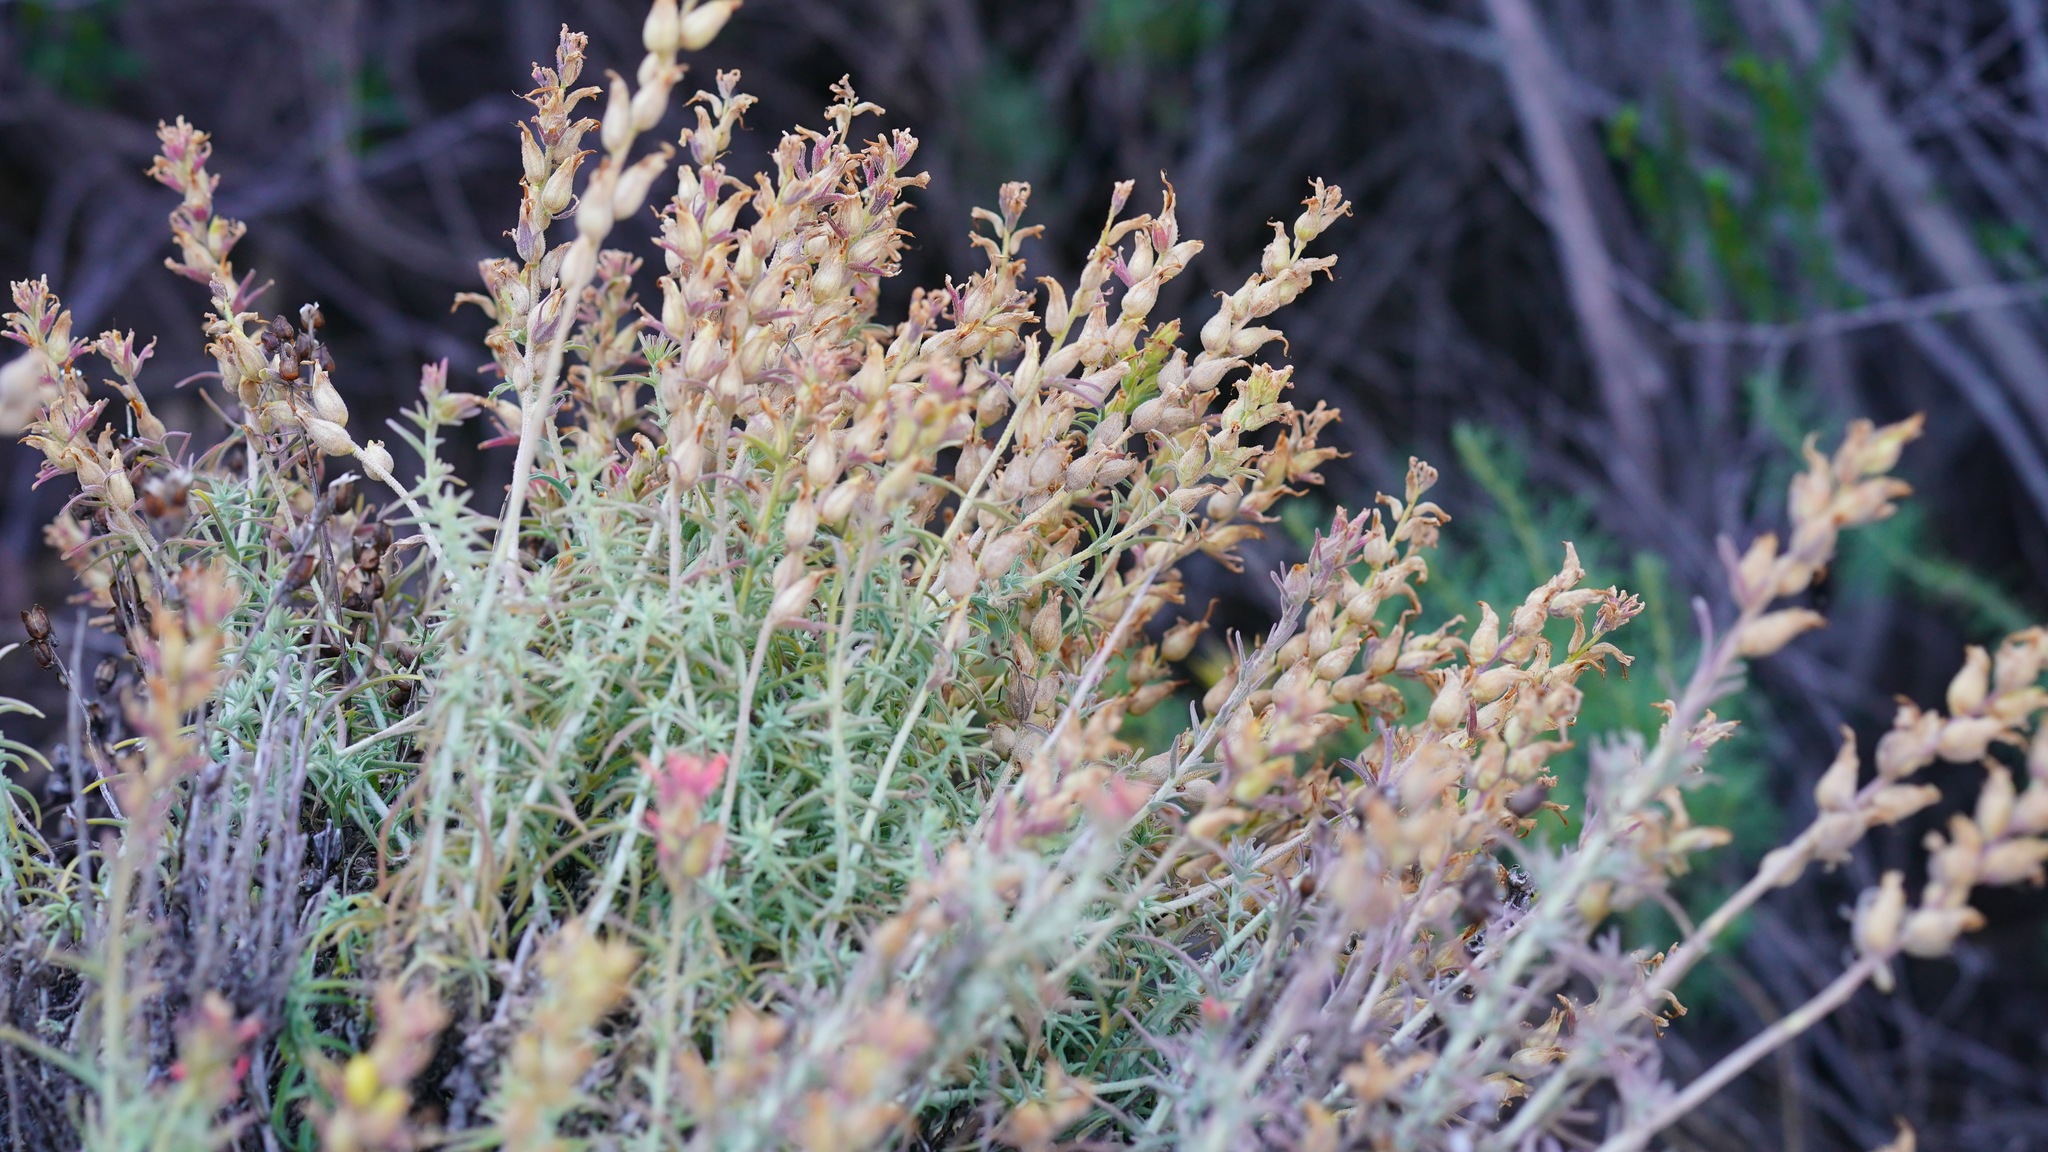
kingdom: Plantae
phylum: Tracheophyta
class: Magnoliopsida
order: Lamiales
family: Orobanchaceae
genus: Castilleja
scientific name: Castilleja foliolosa
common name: Woolly indian paintbrush
